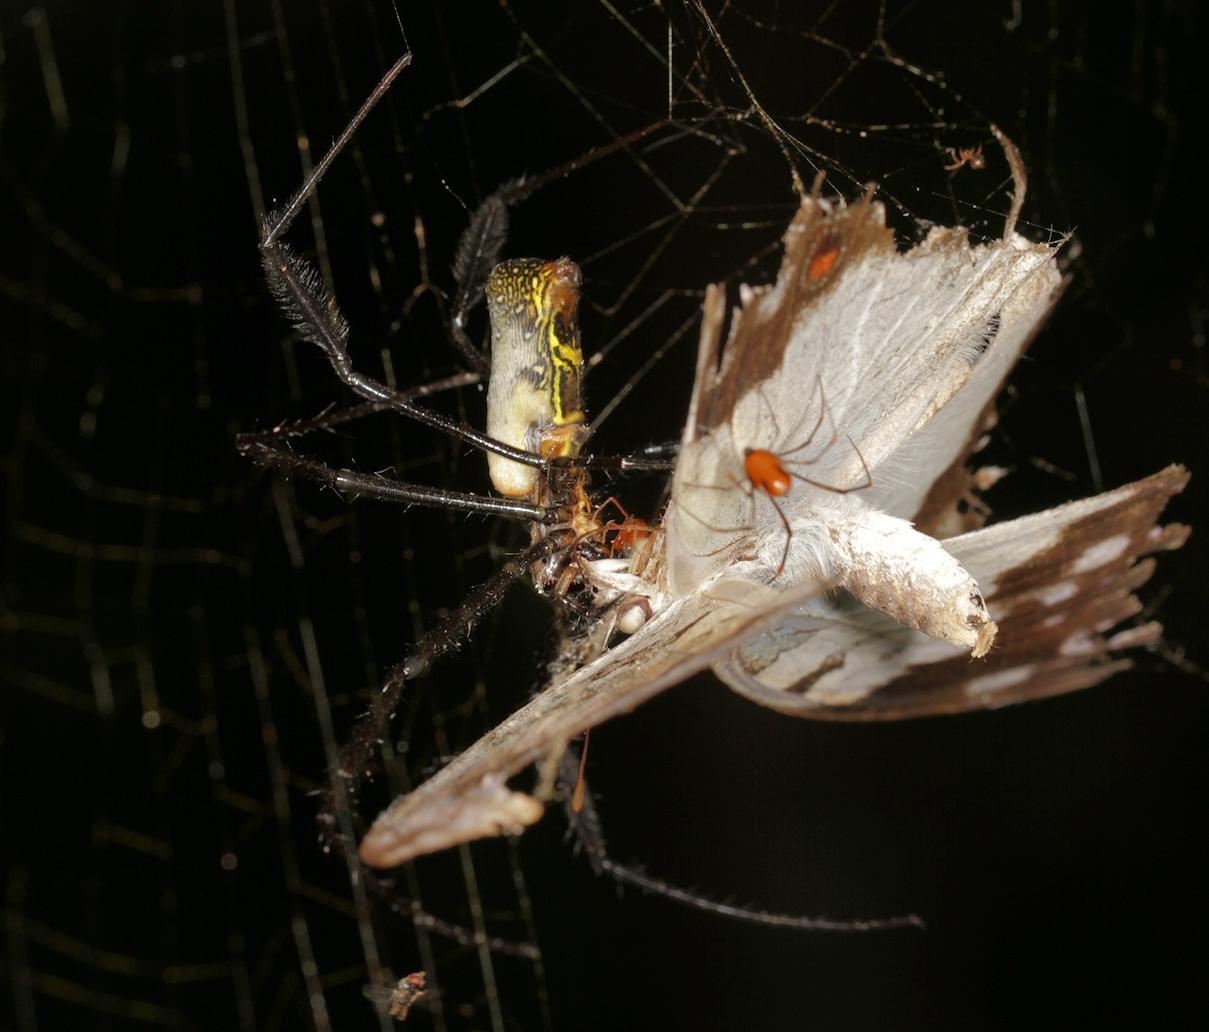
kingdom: Animalia
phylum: Arthropoda
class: Arachnida
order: Araneae
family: Araneidae
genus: Trichonephila
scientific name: Trichonephila fenestrata
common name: Hairy golden orb weaver
